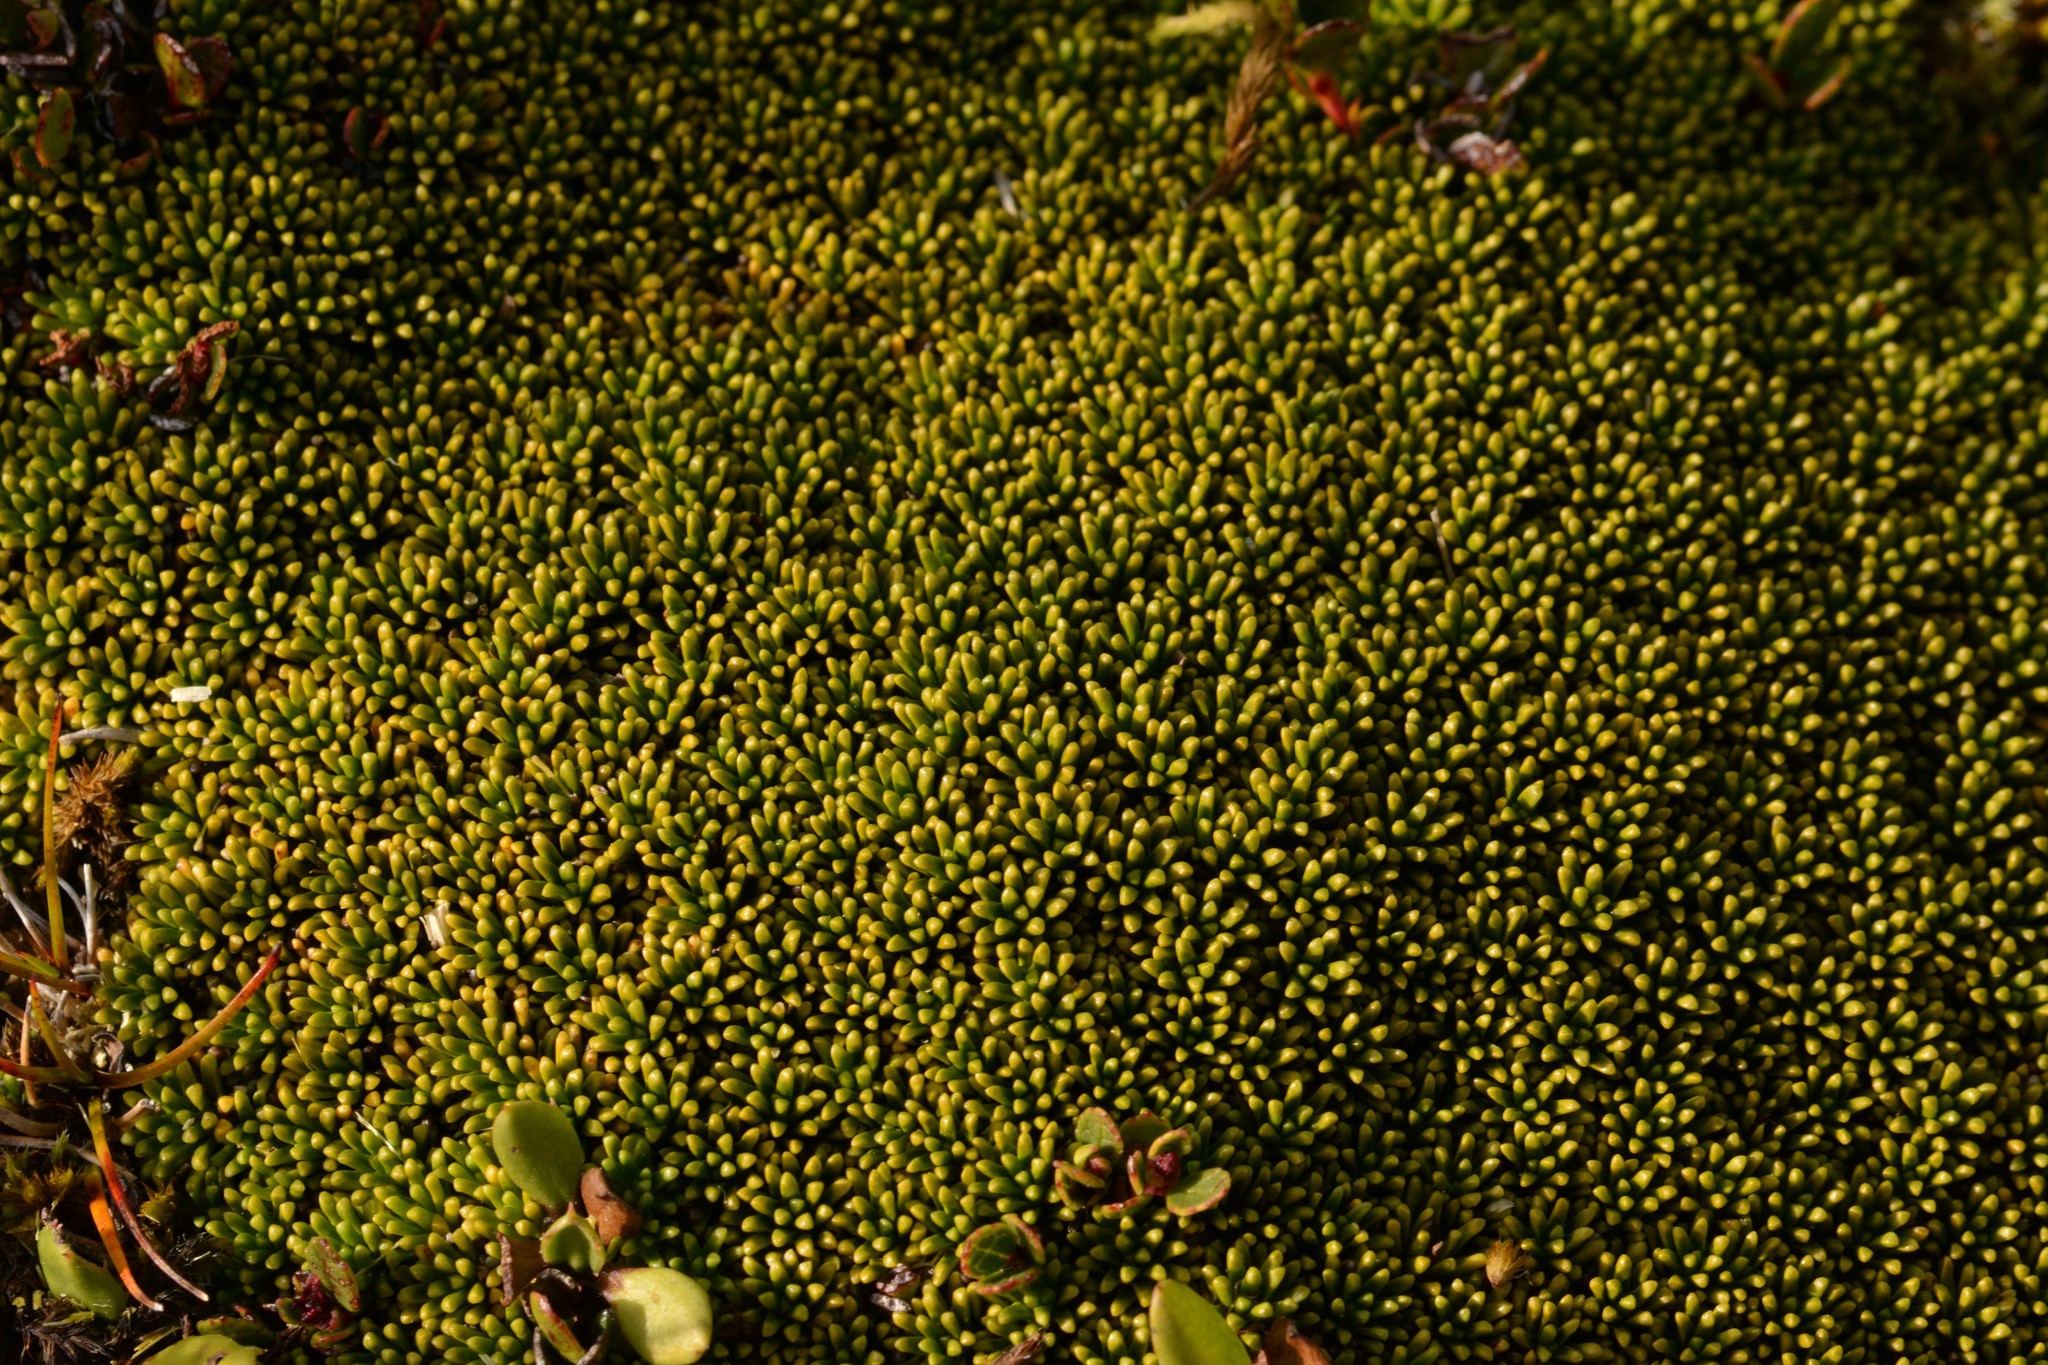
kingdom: Plantae
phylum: Tracheophyta
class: Magnoliopsida
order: Asterales
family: Stylidiaceae
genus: Phyllachne
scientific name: Phyllachne colensoi
